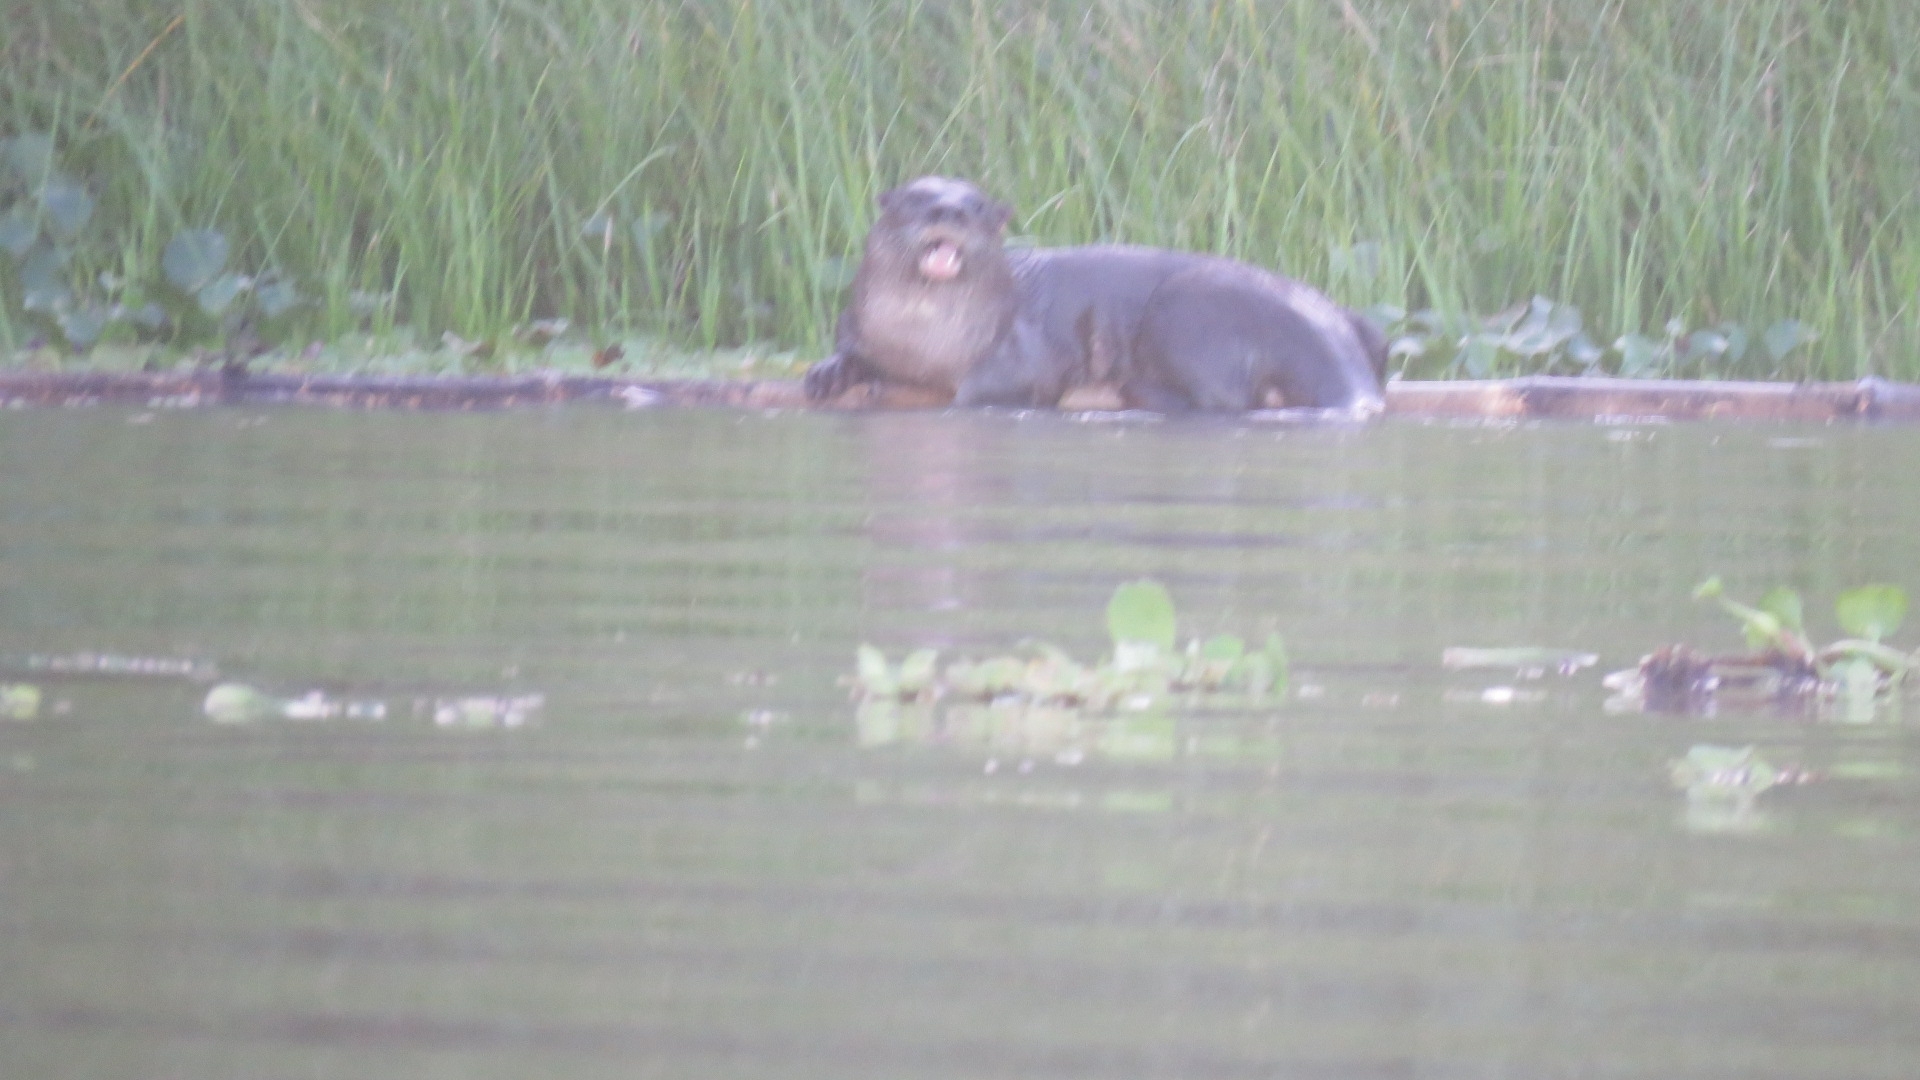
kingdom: Animalia
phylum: Chordata
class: Mammalia
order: Carnivora
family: Mustelidae
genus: Lontra
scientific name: Lontra longicaudis
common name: Neotropical otter
